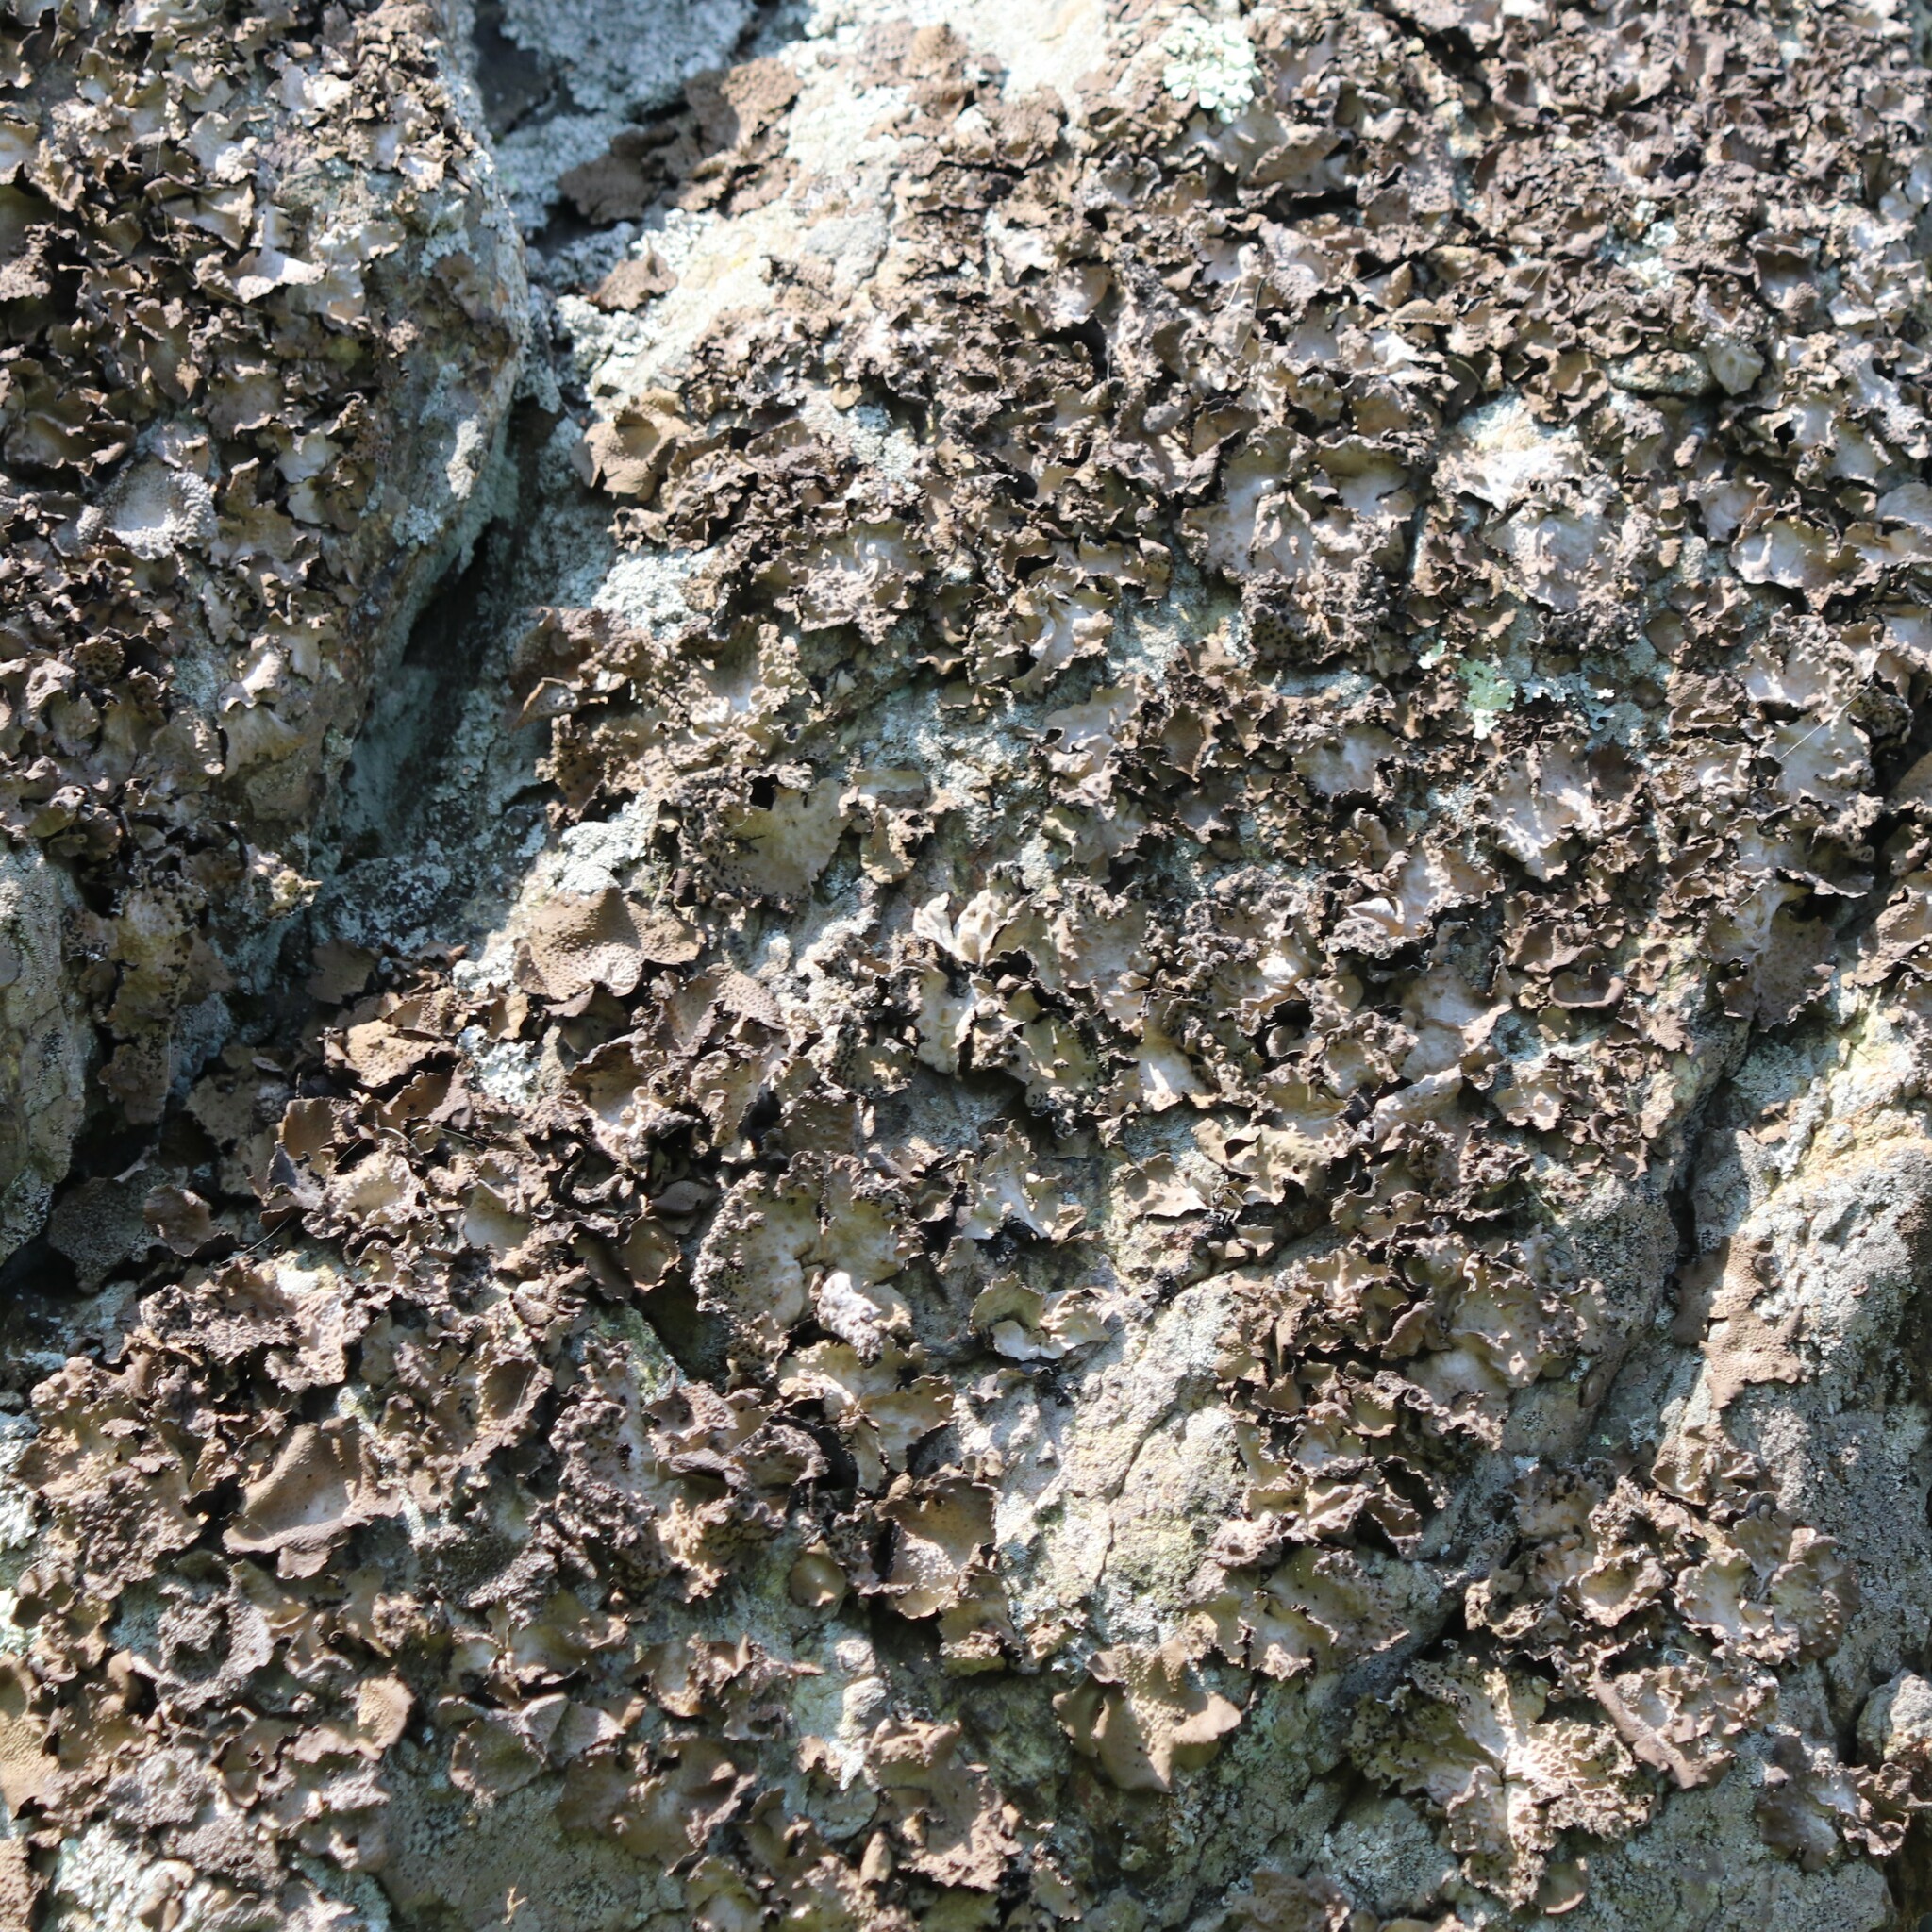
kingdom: Fungi
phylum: Ascomycota
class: Lecanoromycetes
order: Umbilicariales
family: Umbilicariaceae
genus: Lasallia
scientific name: Lasallia papulosa
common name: Common toadskin lichen
